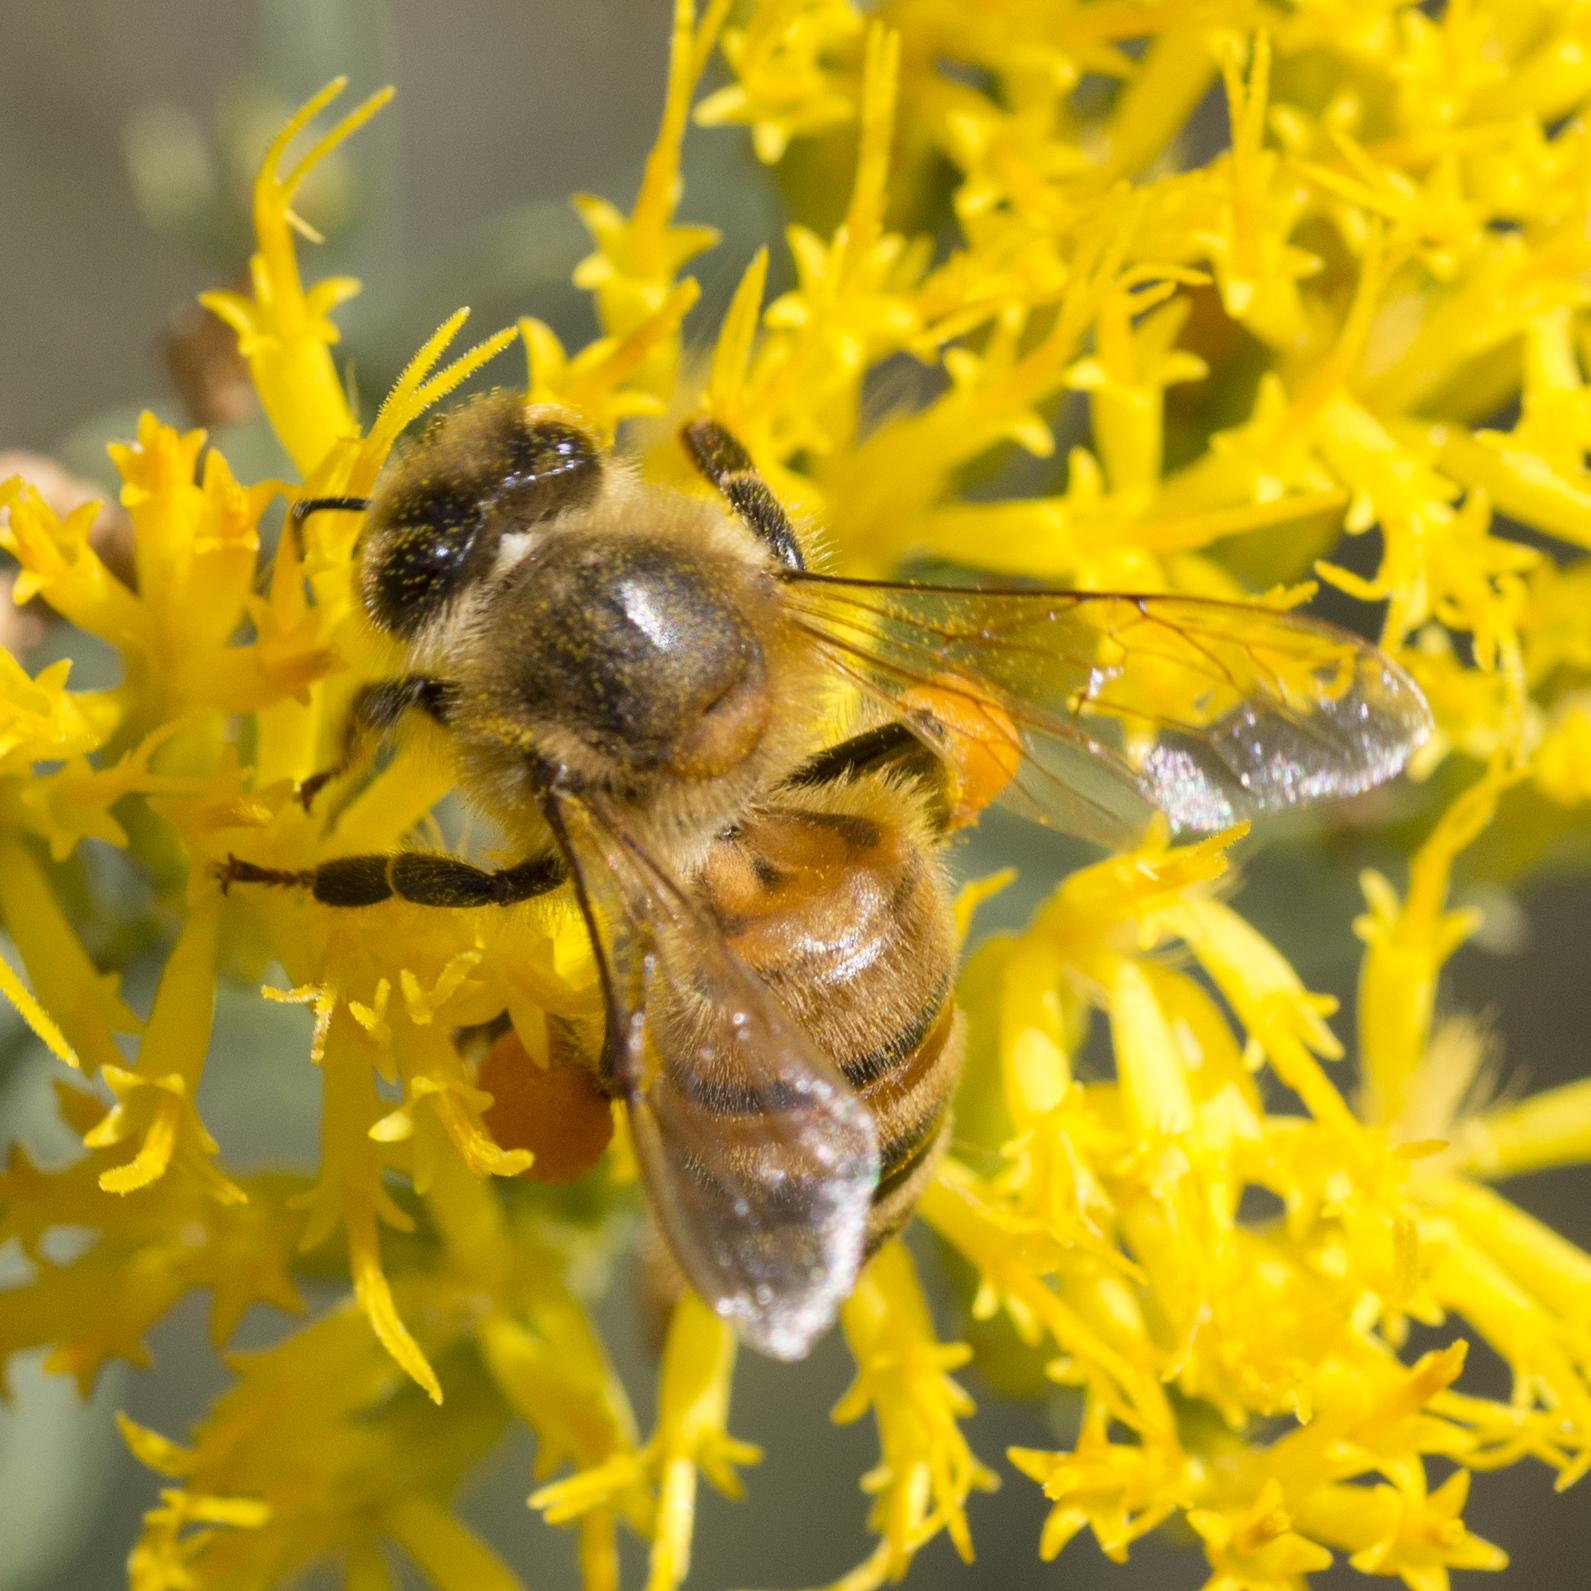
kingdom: Animalia
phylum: Arthropoda
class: Insecta
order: Hymenoptera
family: Apidae
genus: Apis
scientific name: Apis mellifera
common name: Honey bee
